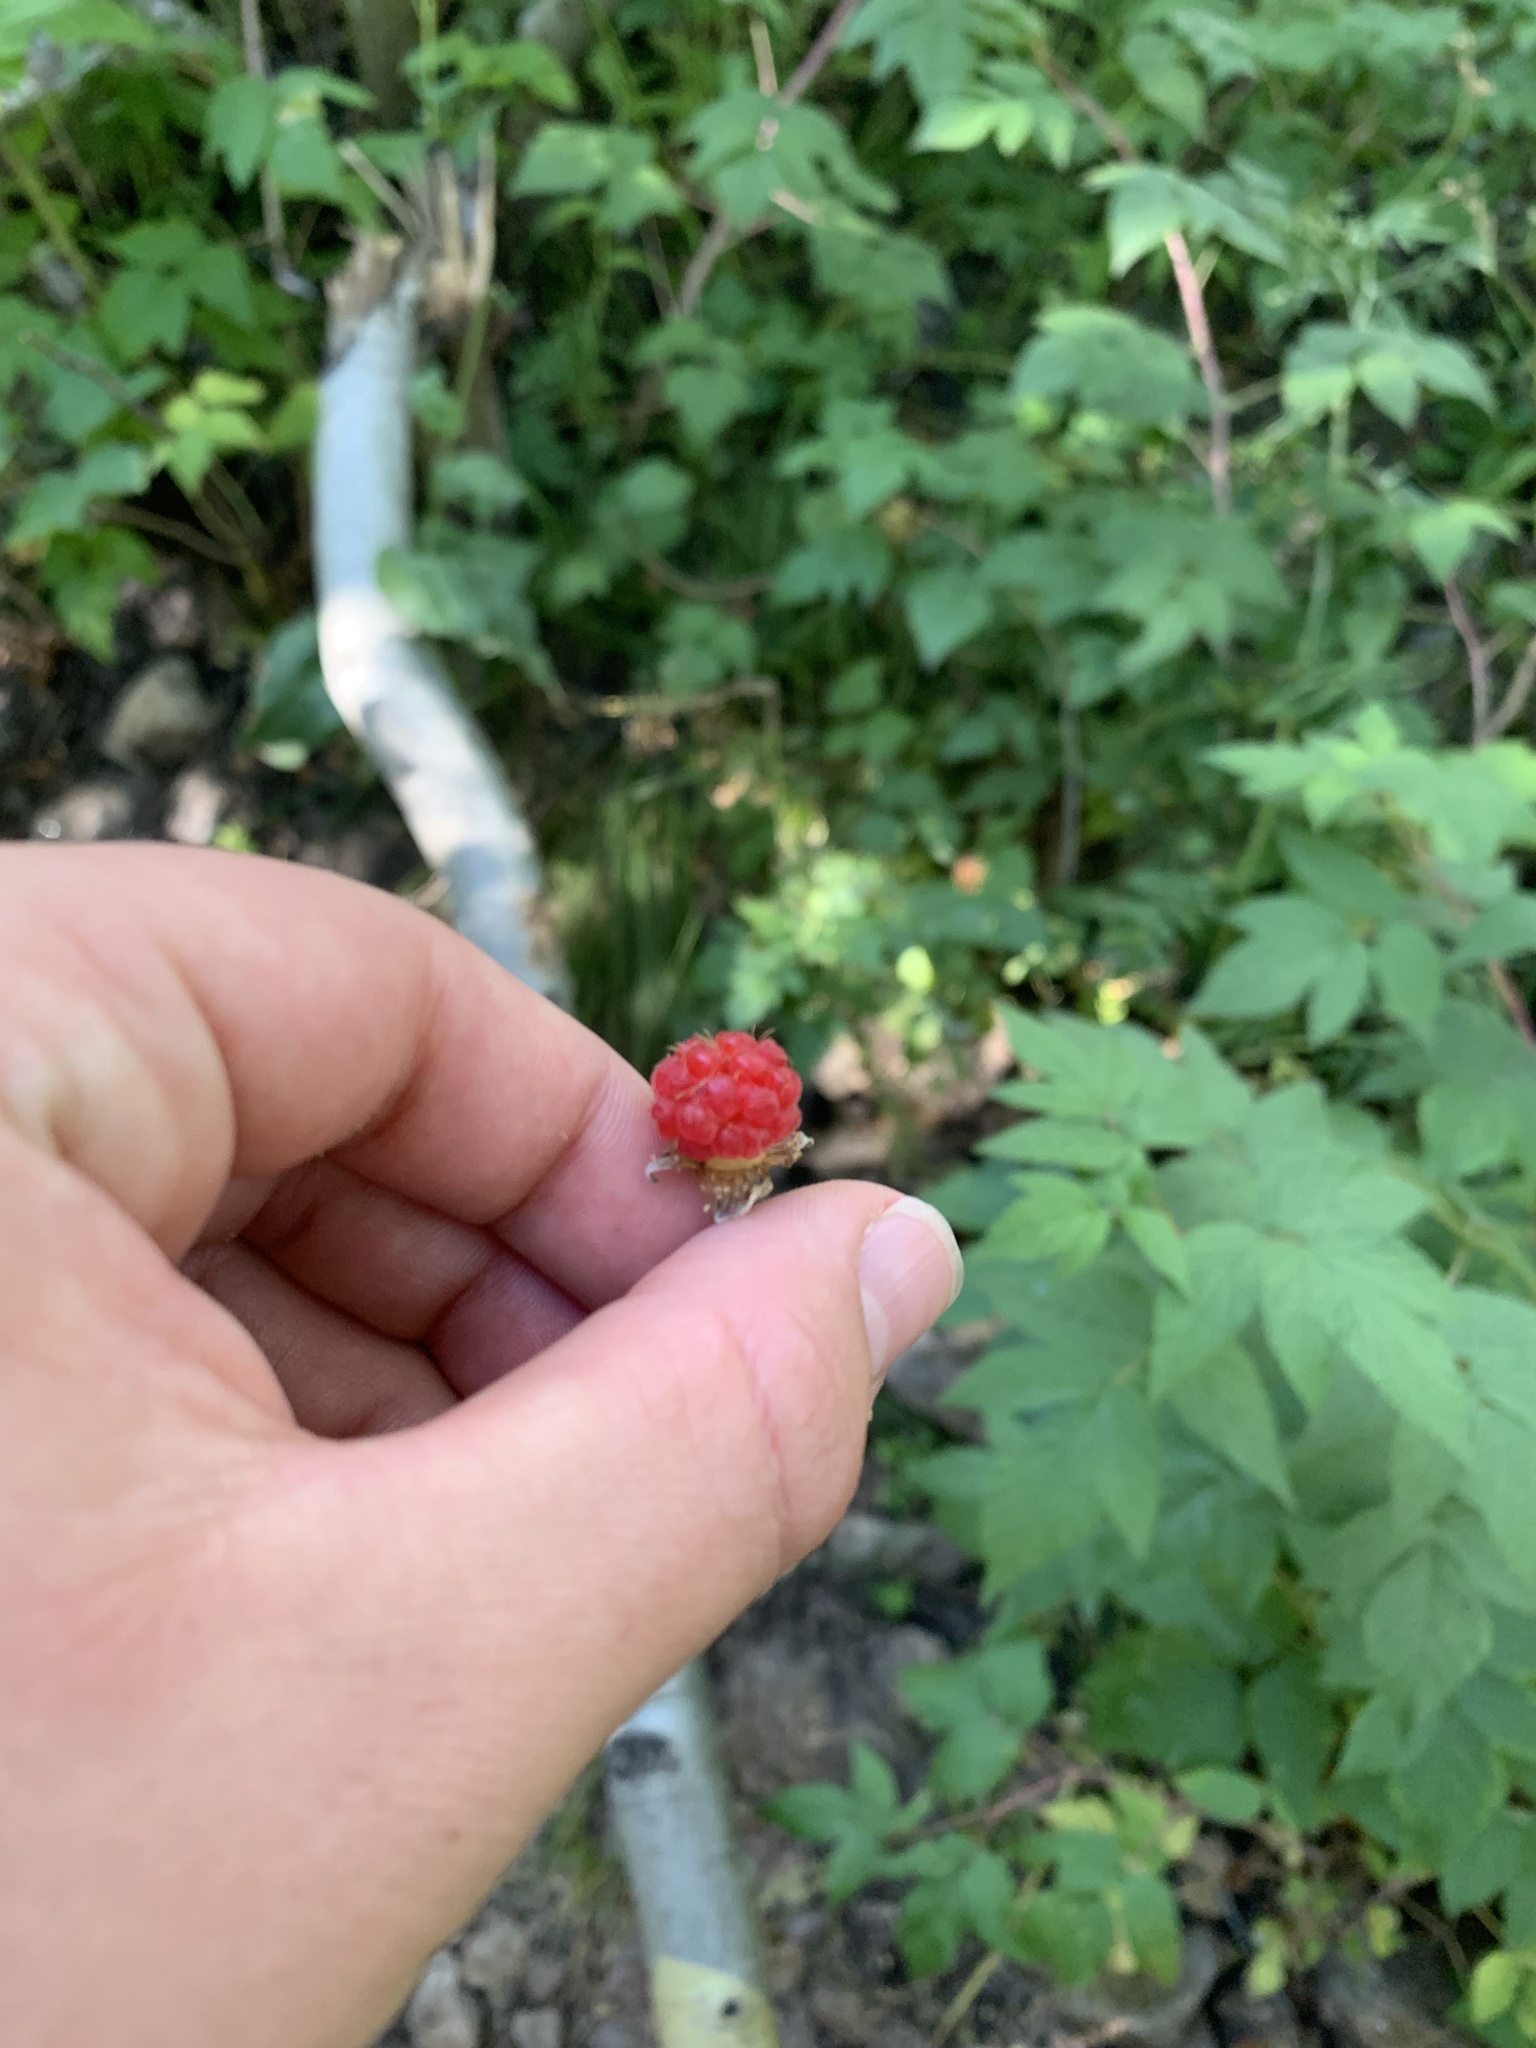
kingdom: Plantae
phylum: Tracheophyta
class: Magnoliopsida
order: Rosales
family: Rosaceae
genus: Rubus
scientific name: Rubus idaeus
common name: Raspberry
